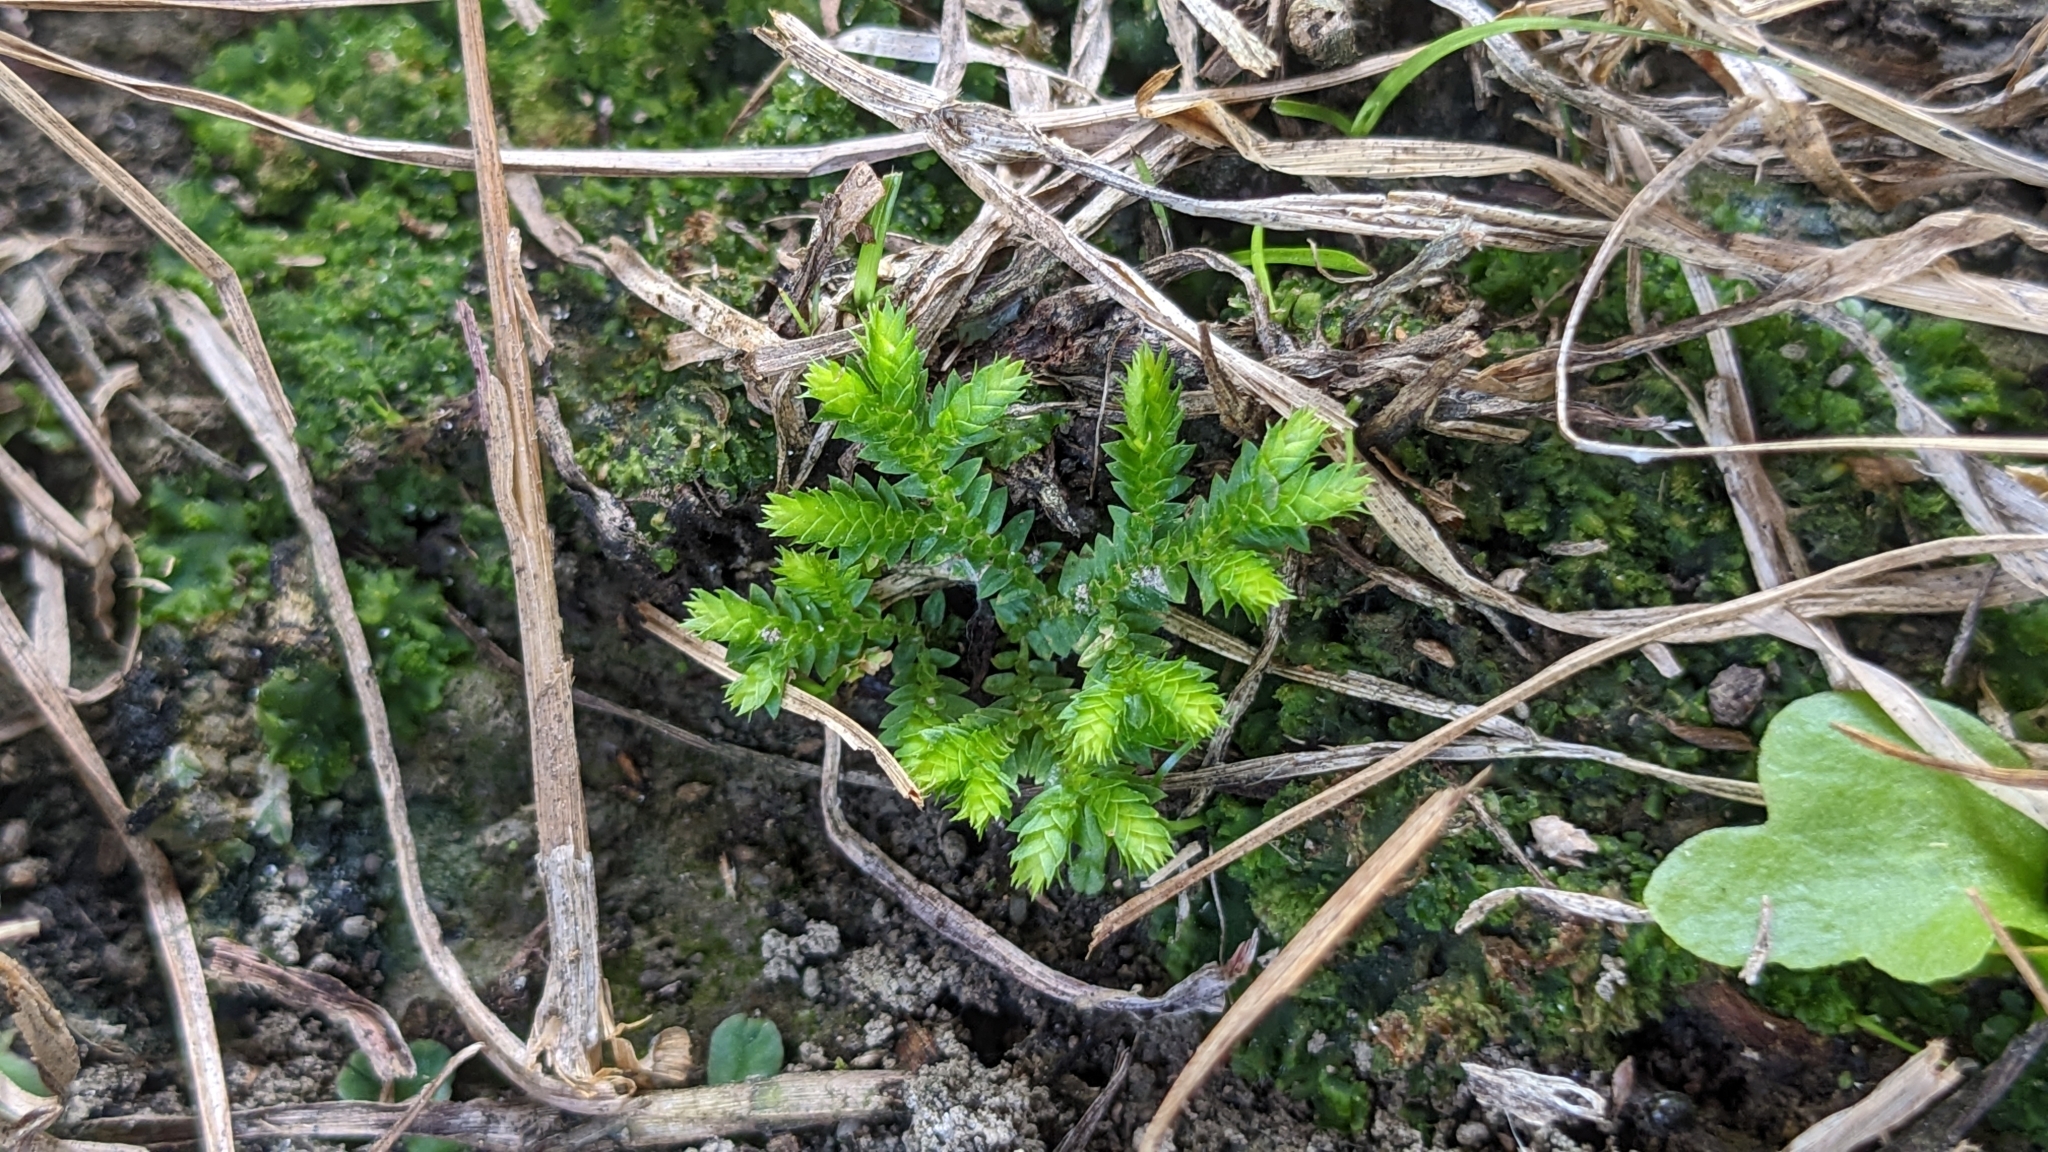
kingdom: Plantae
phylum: Tracheophyta
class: Lycopodiopsida
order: Selaginellales
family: Selaginellaceae
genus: Selaginella
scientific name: Selaginella ciliaris
